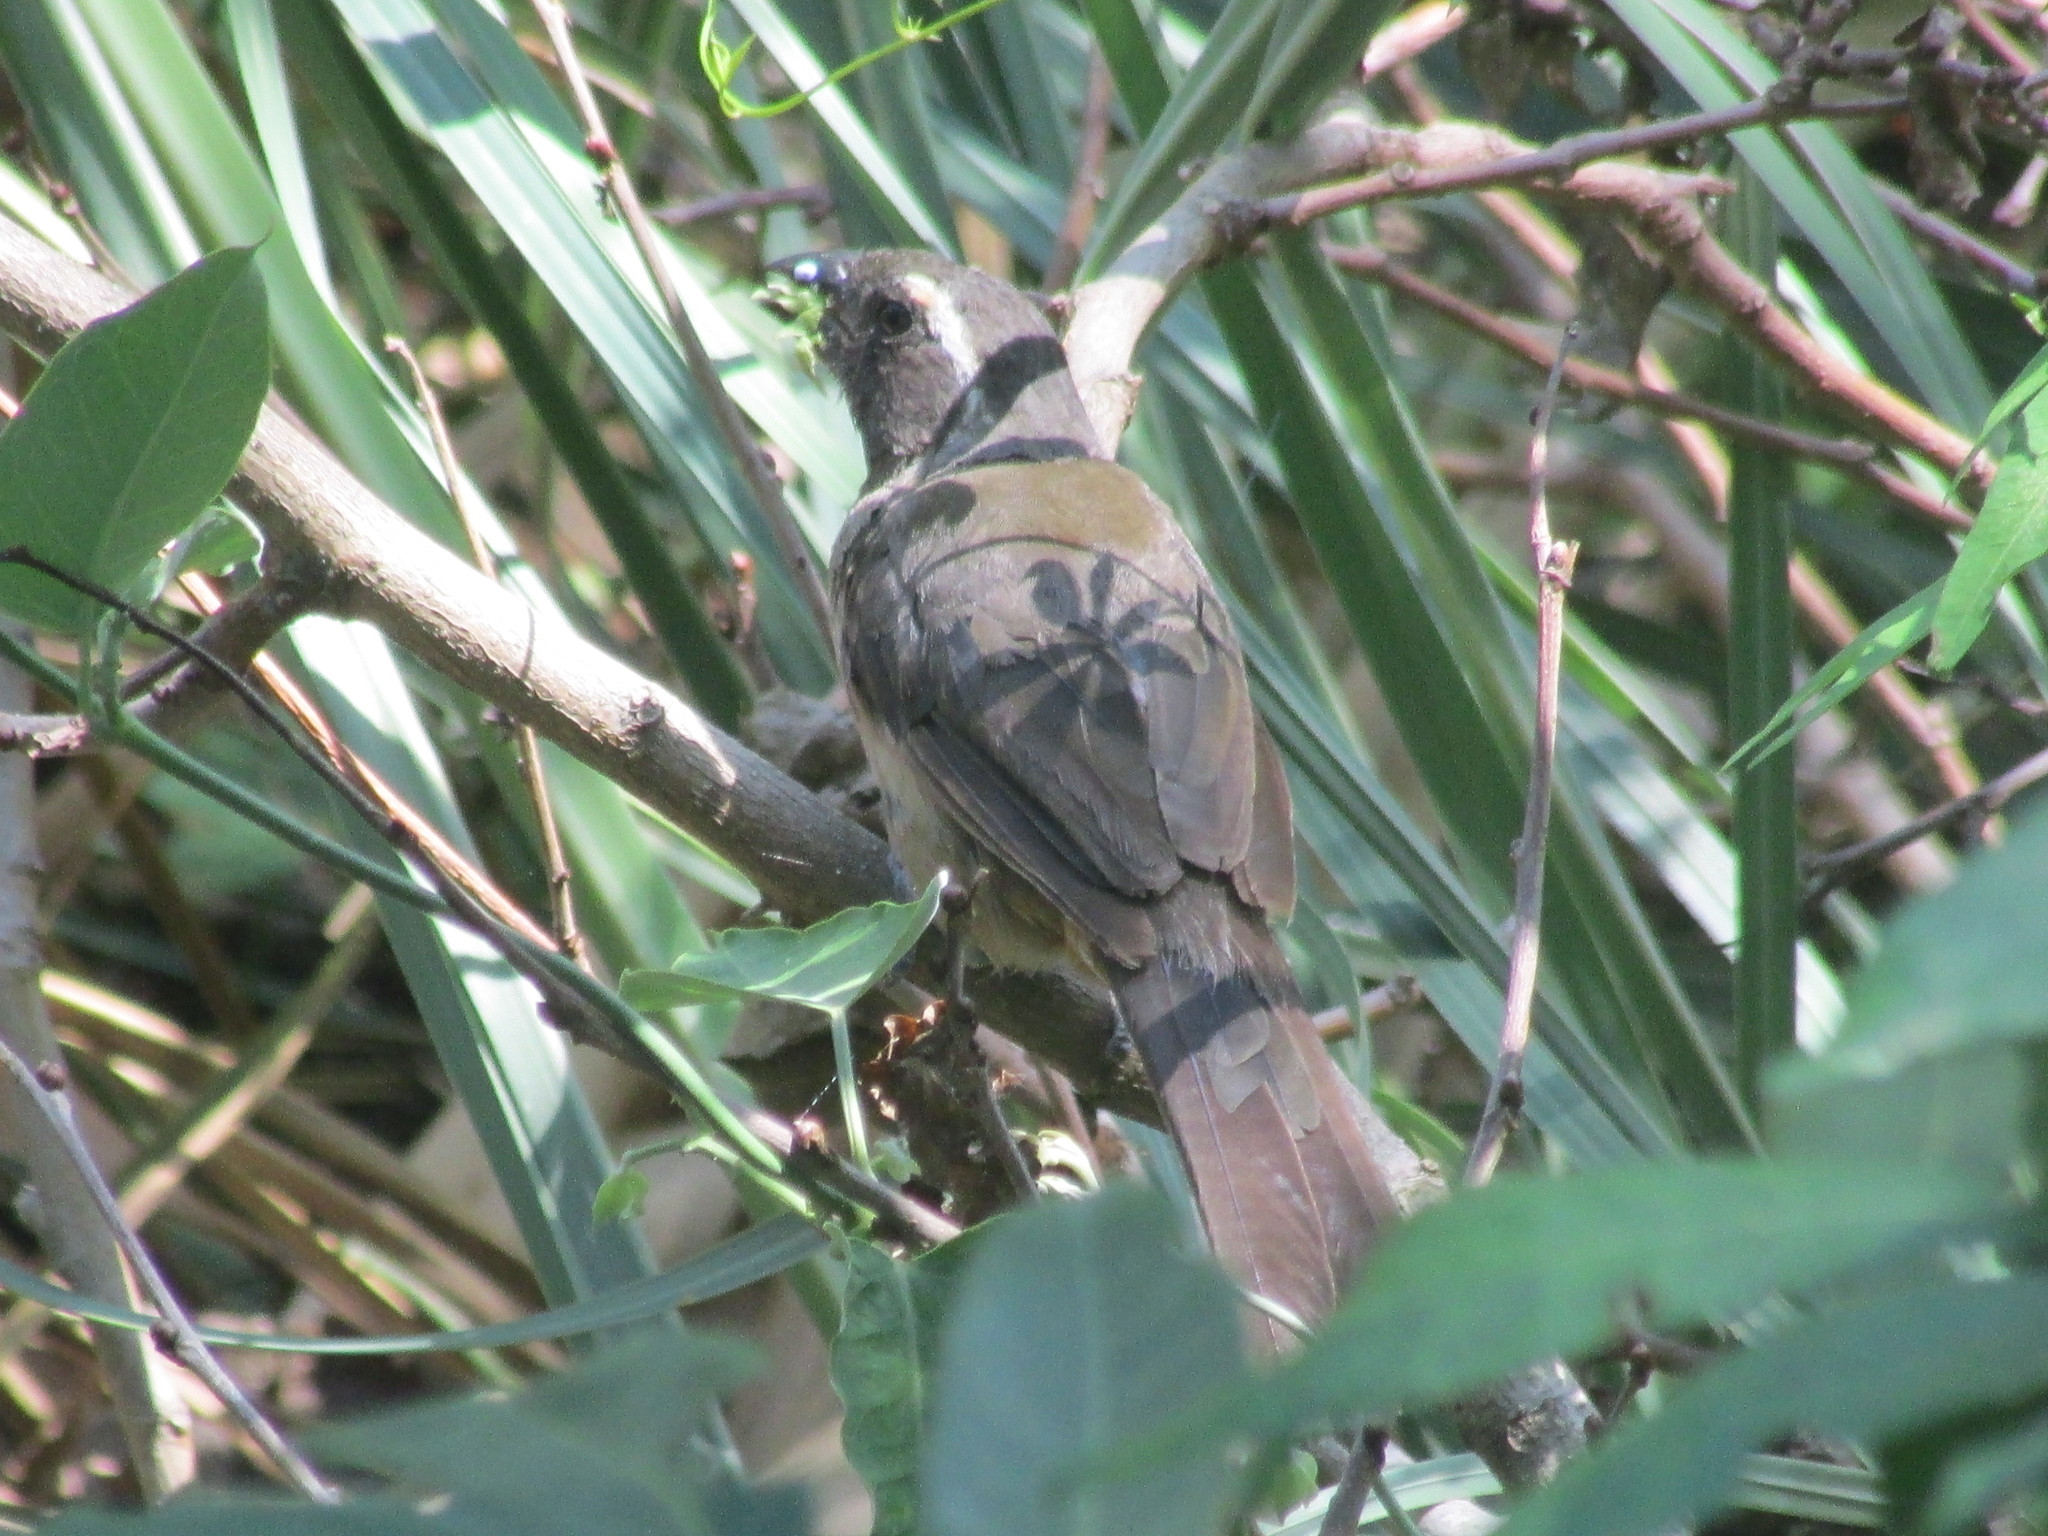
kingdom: Animalia
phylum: Chordata
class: Aves
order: Passeriformes
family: Thraupidae
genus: Saltator
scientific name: Saltator similis
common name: Green-winged saltator
